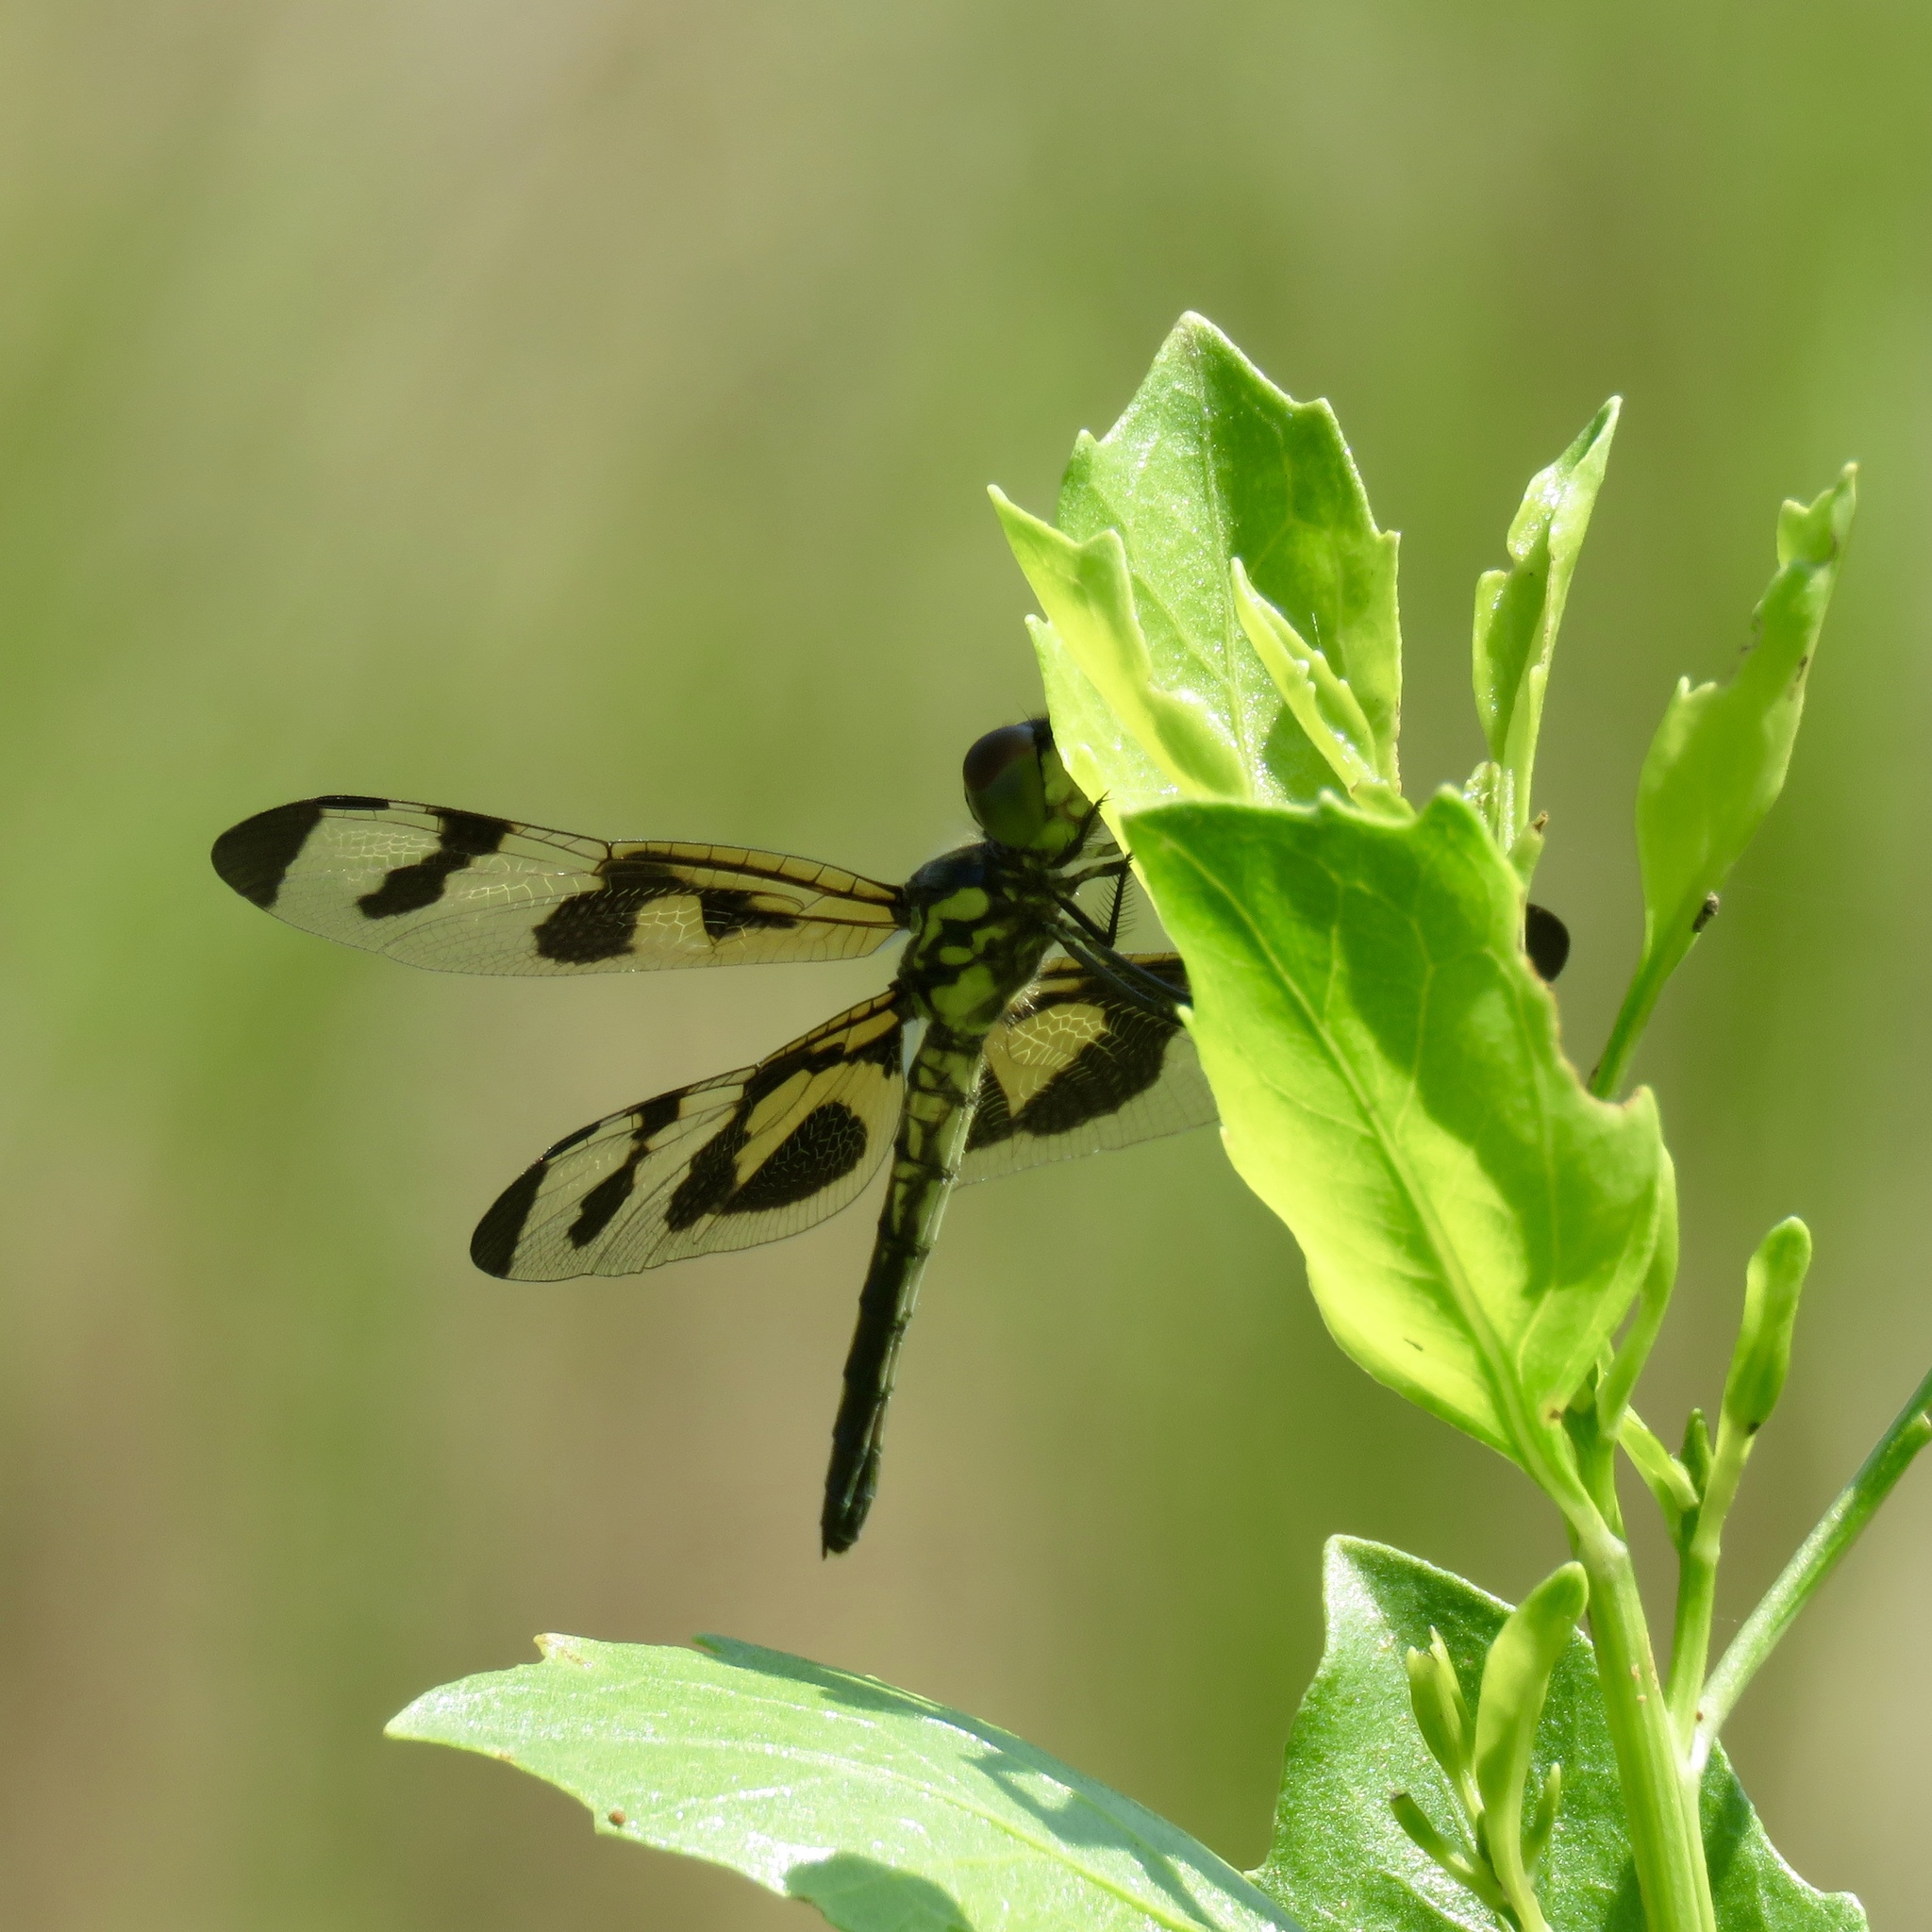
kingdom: Animalia
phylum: Arthropoda
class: Insecta
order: Odonata
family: Libellulidae
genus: Celithemis
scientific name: Celithemis fasciata
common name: Banded pennant
